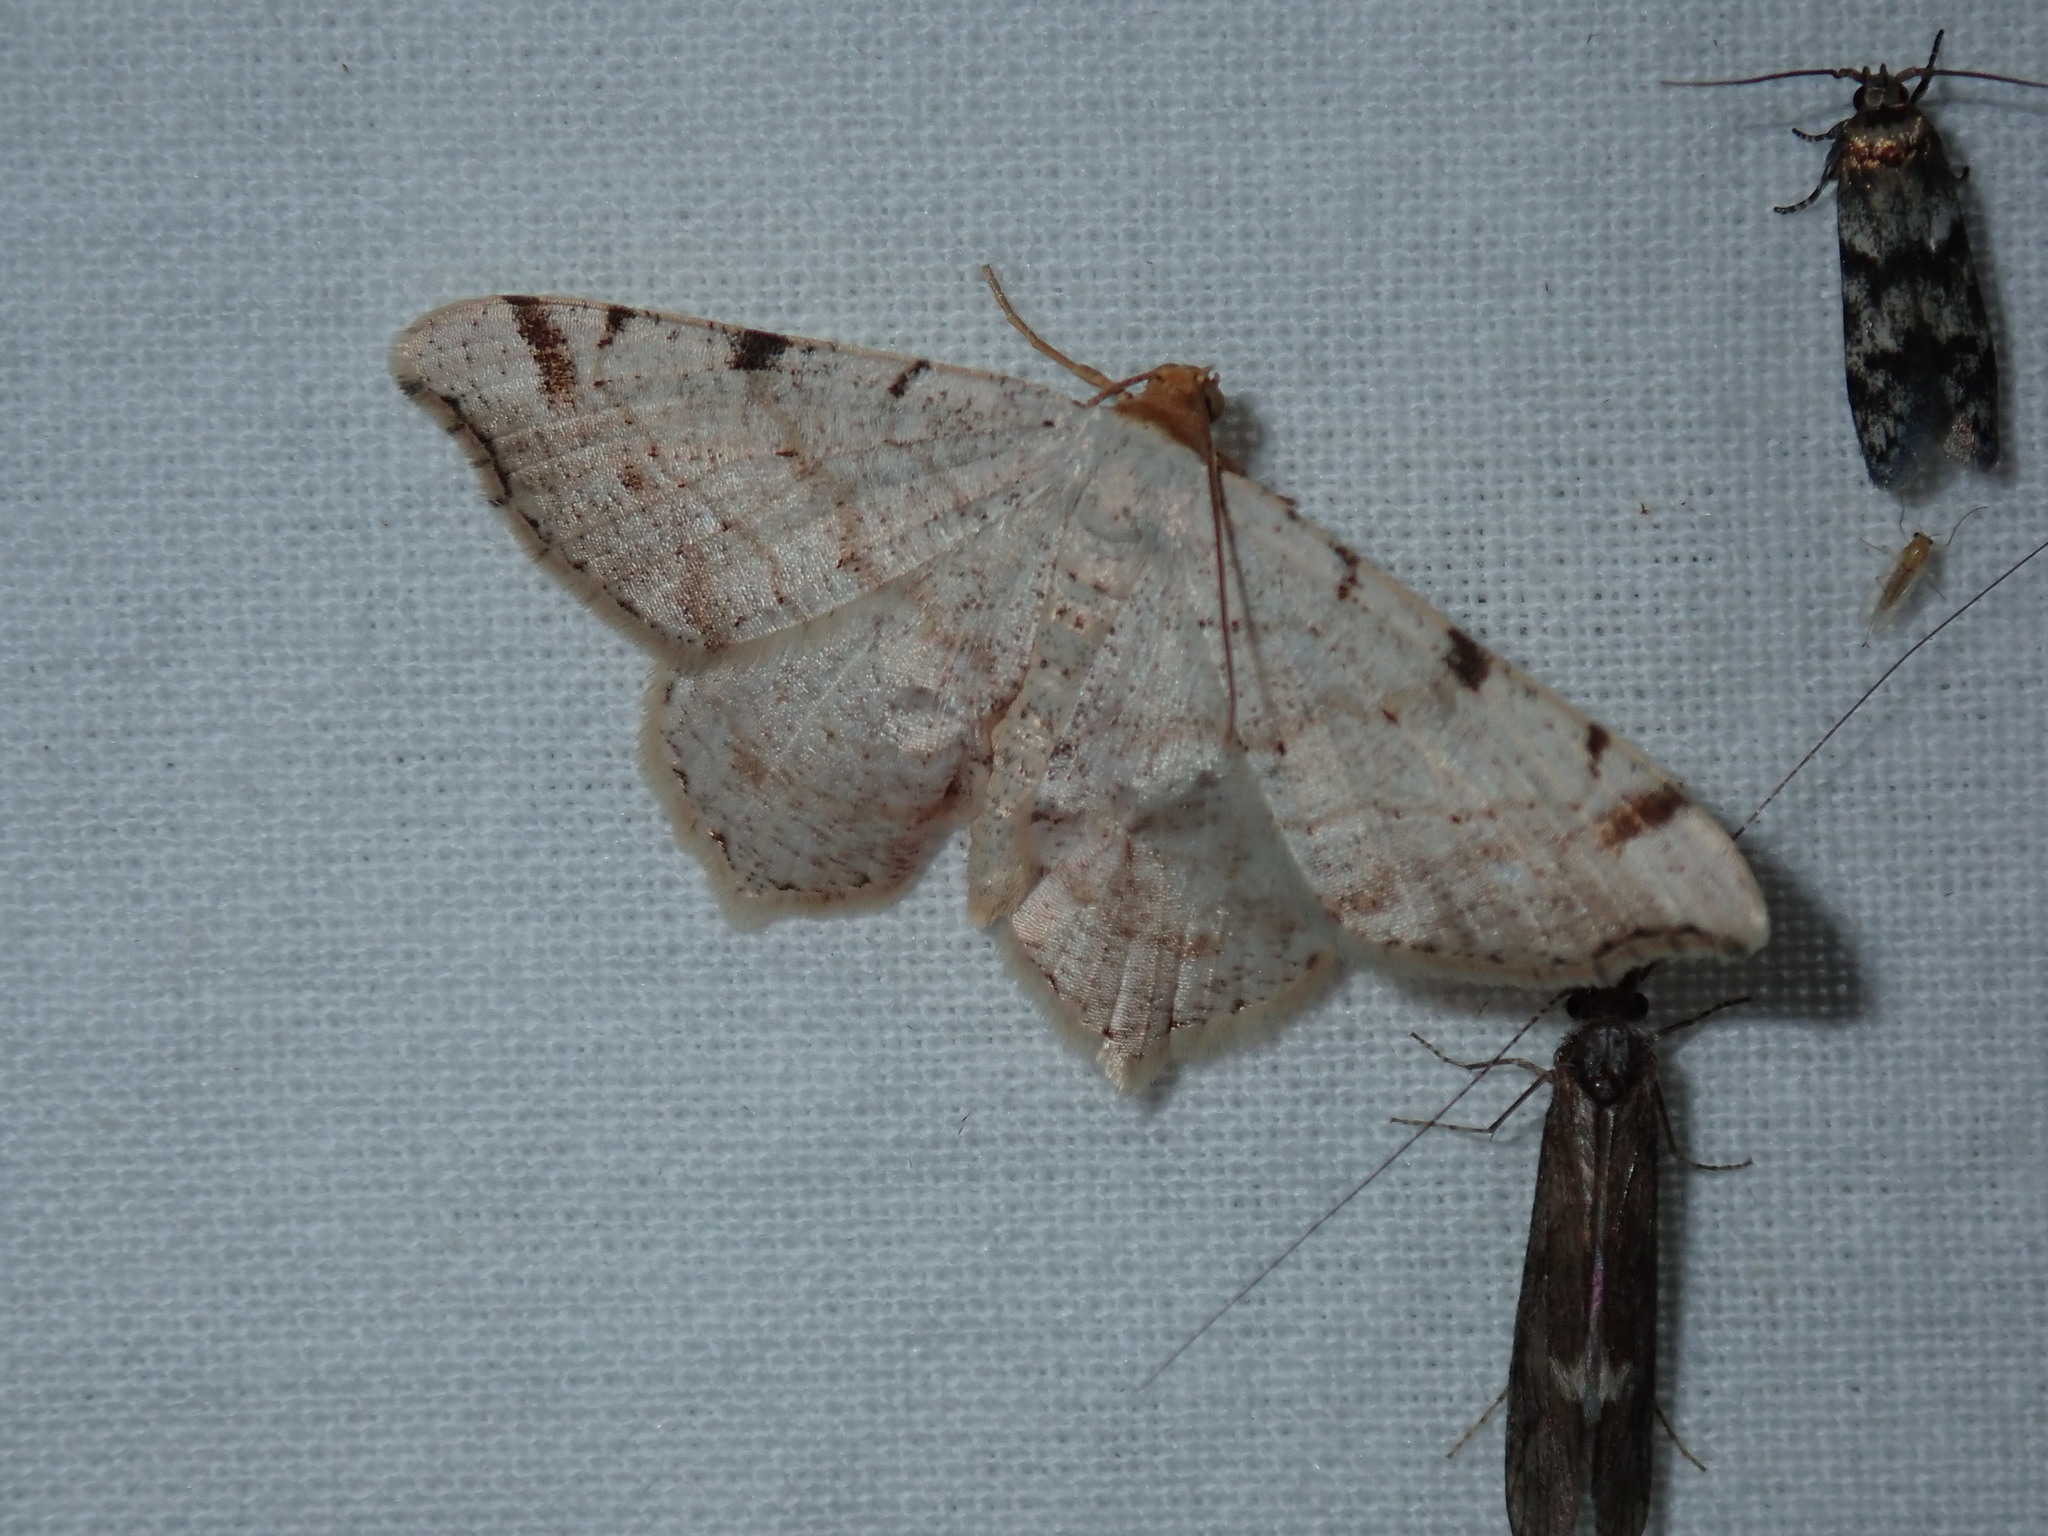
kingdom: Animalia
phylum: Arthropoda
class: Insecta
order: Lepidoptera
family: Geometridae
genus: Macaria
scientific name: Macaria bisignata
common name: Red-headed inchworm
